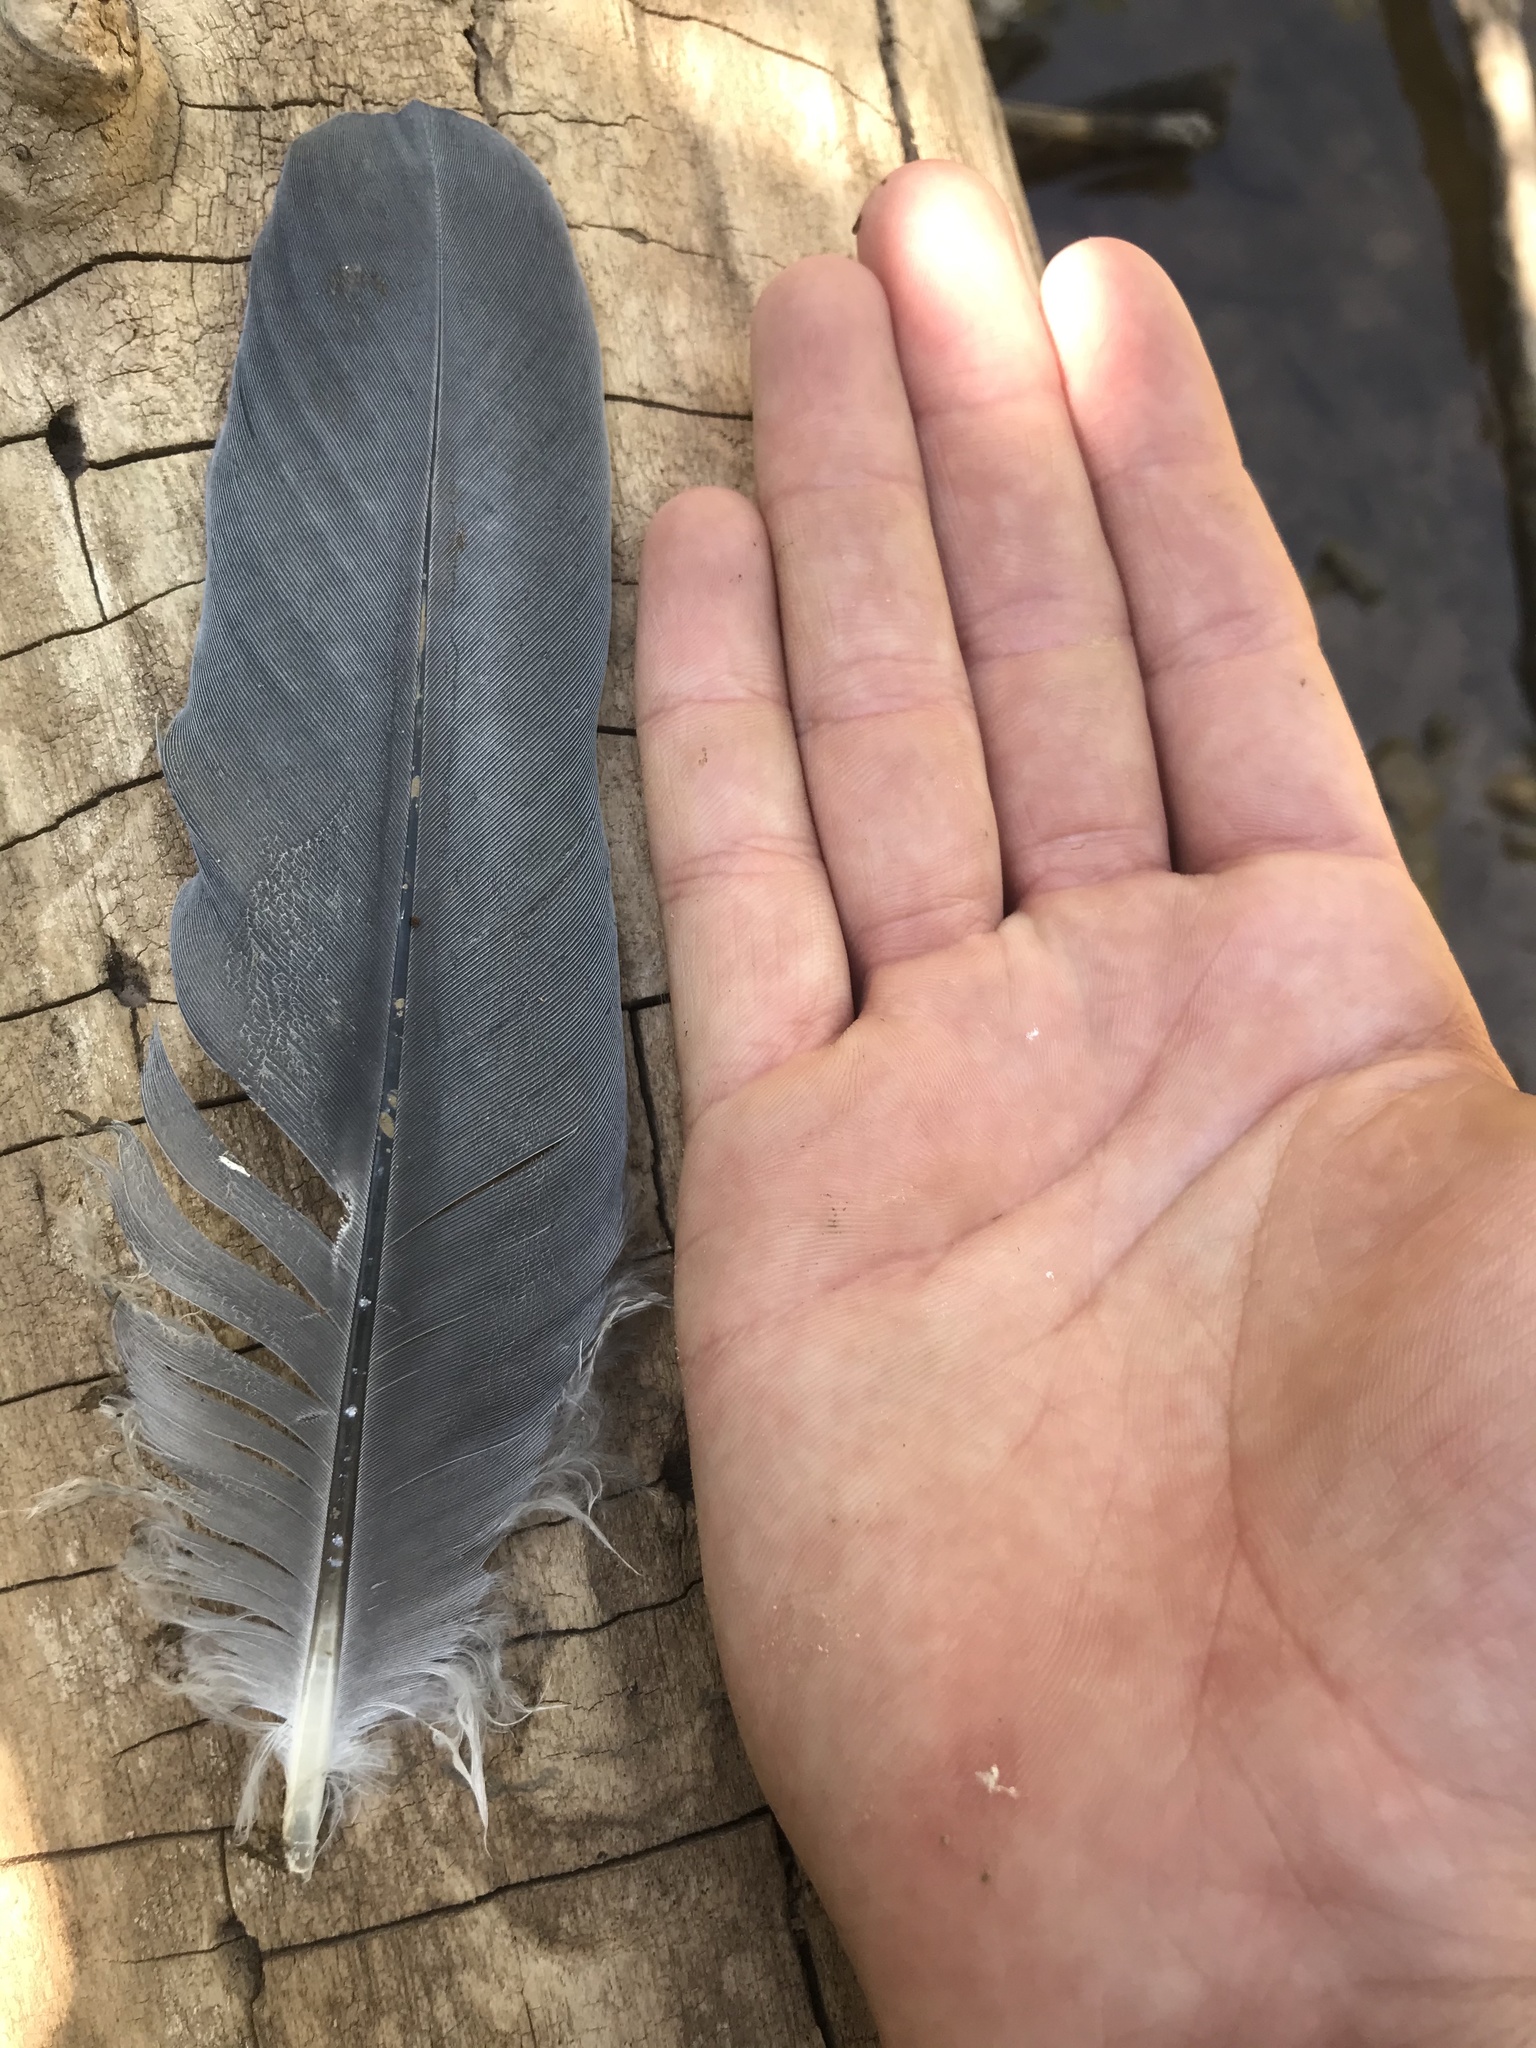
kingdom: Animalia
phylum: Chordata
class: Aves
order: Pelecaniformes
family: Ardeidae
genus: Ardea
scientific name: Ardea herodias
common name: Great blue heron
